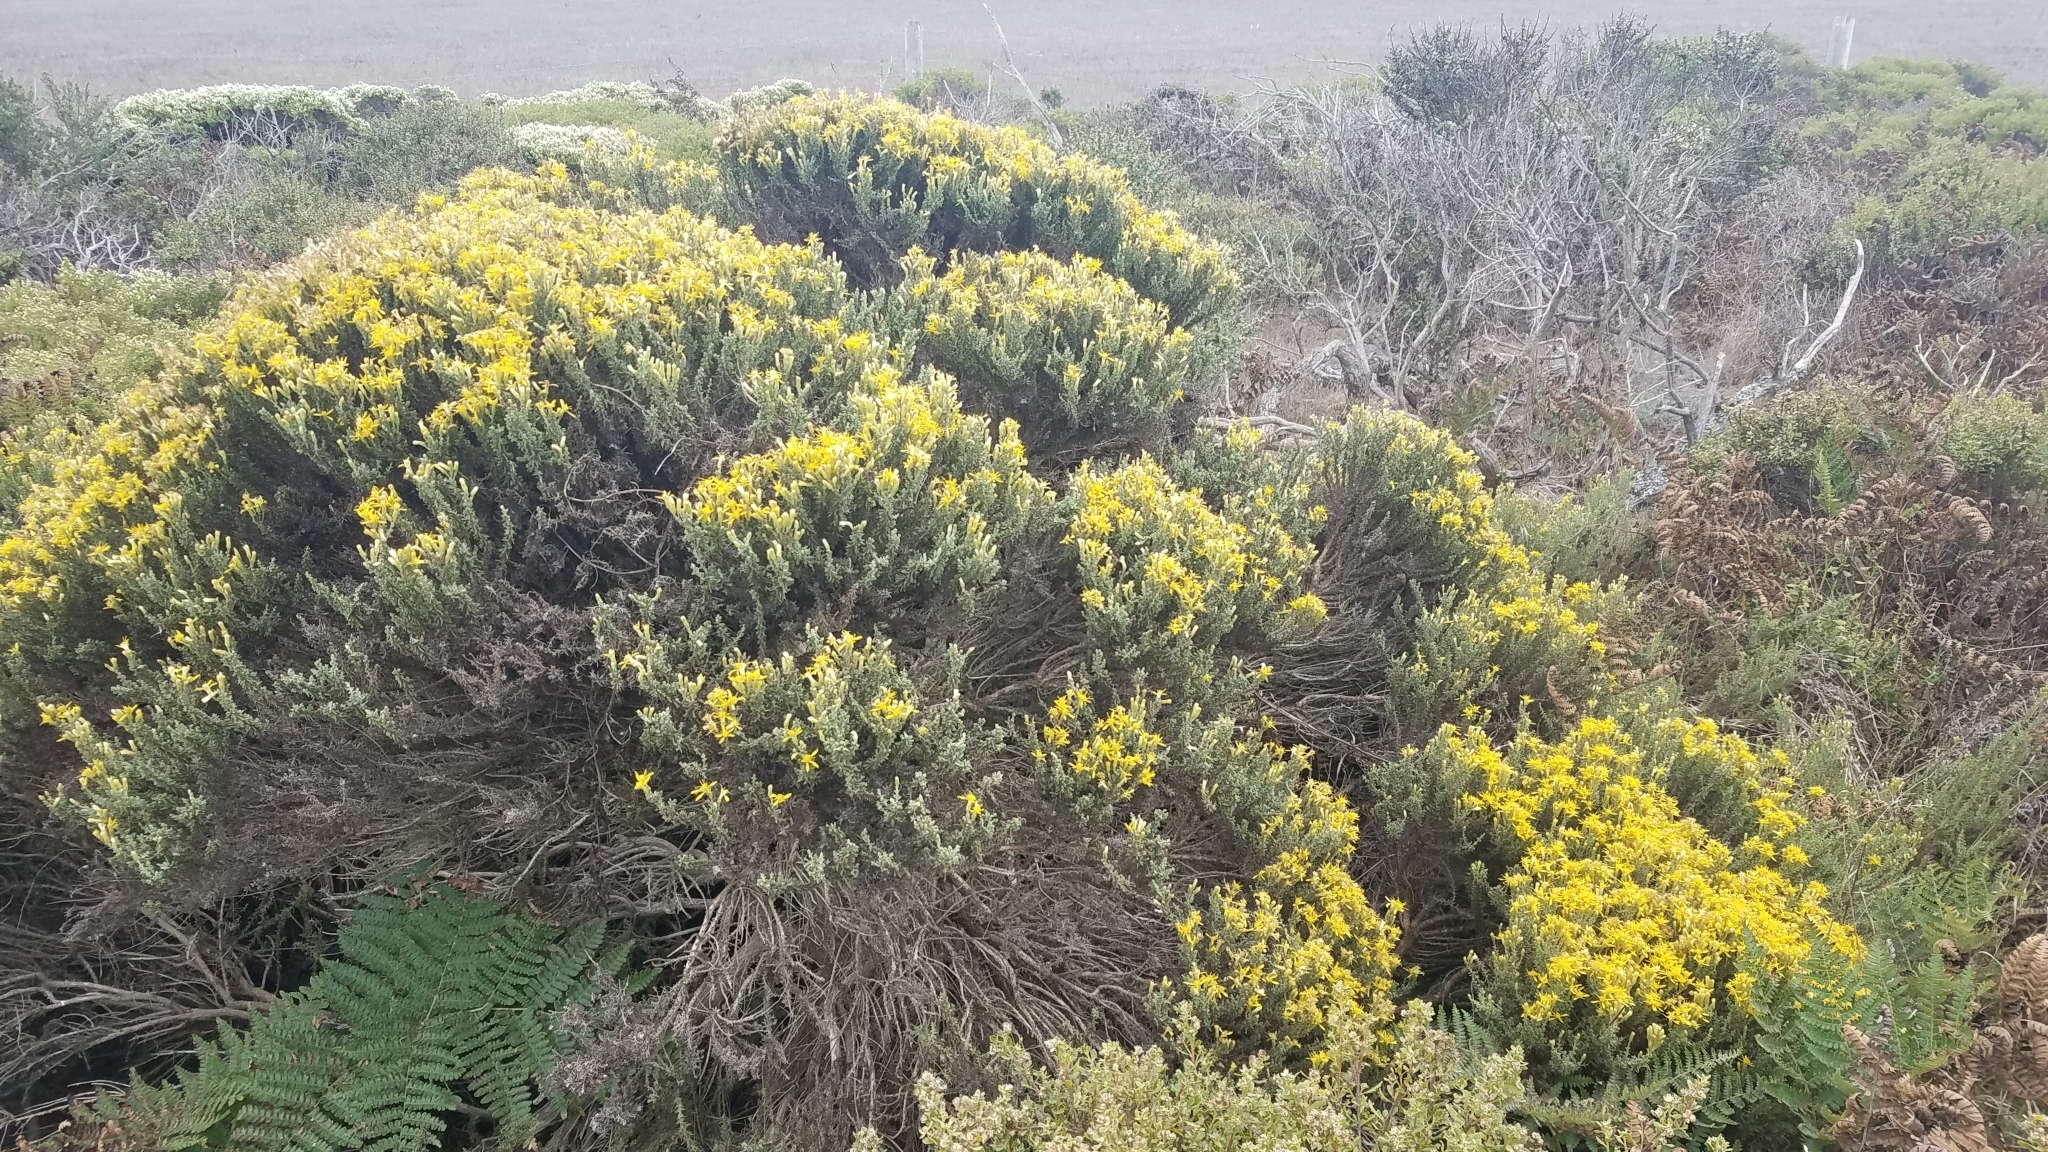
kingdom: Plantae
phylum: Tracheophyta
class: Magnoliopsida
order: Asterales
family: Asteraceae
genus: Ericameria
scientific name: Ericameria ericoides
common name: California goldenbush
